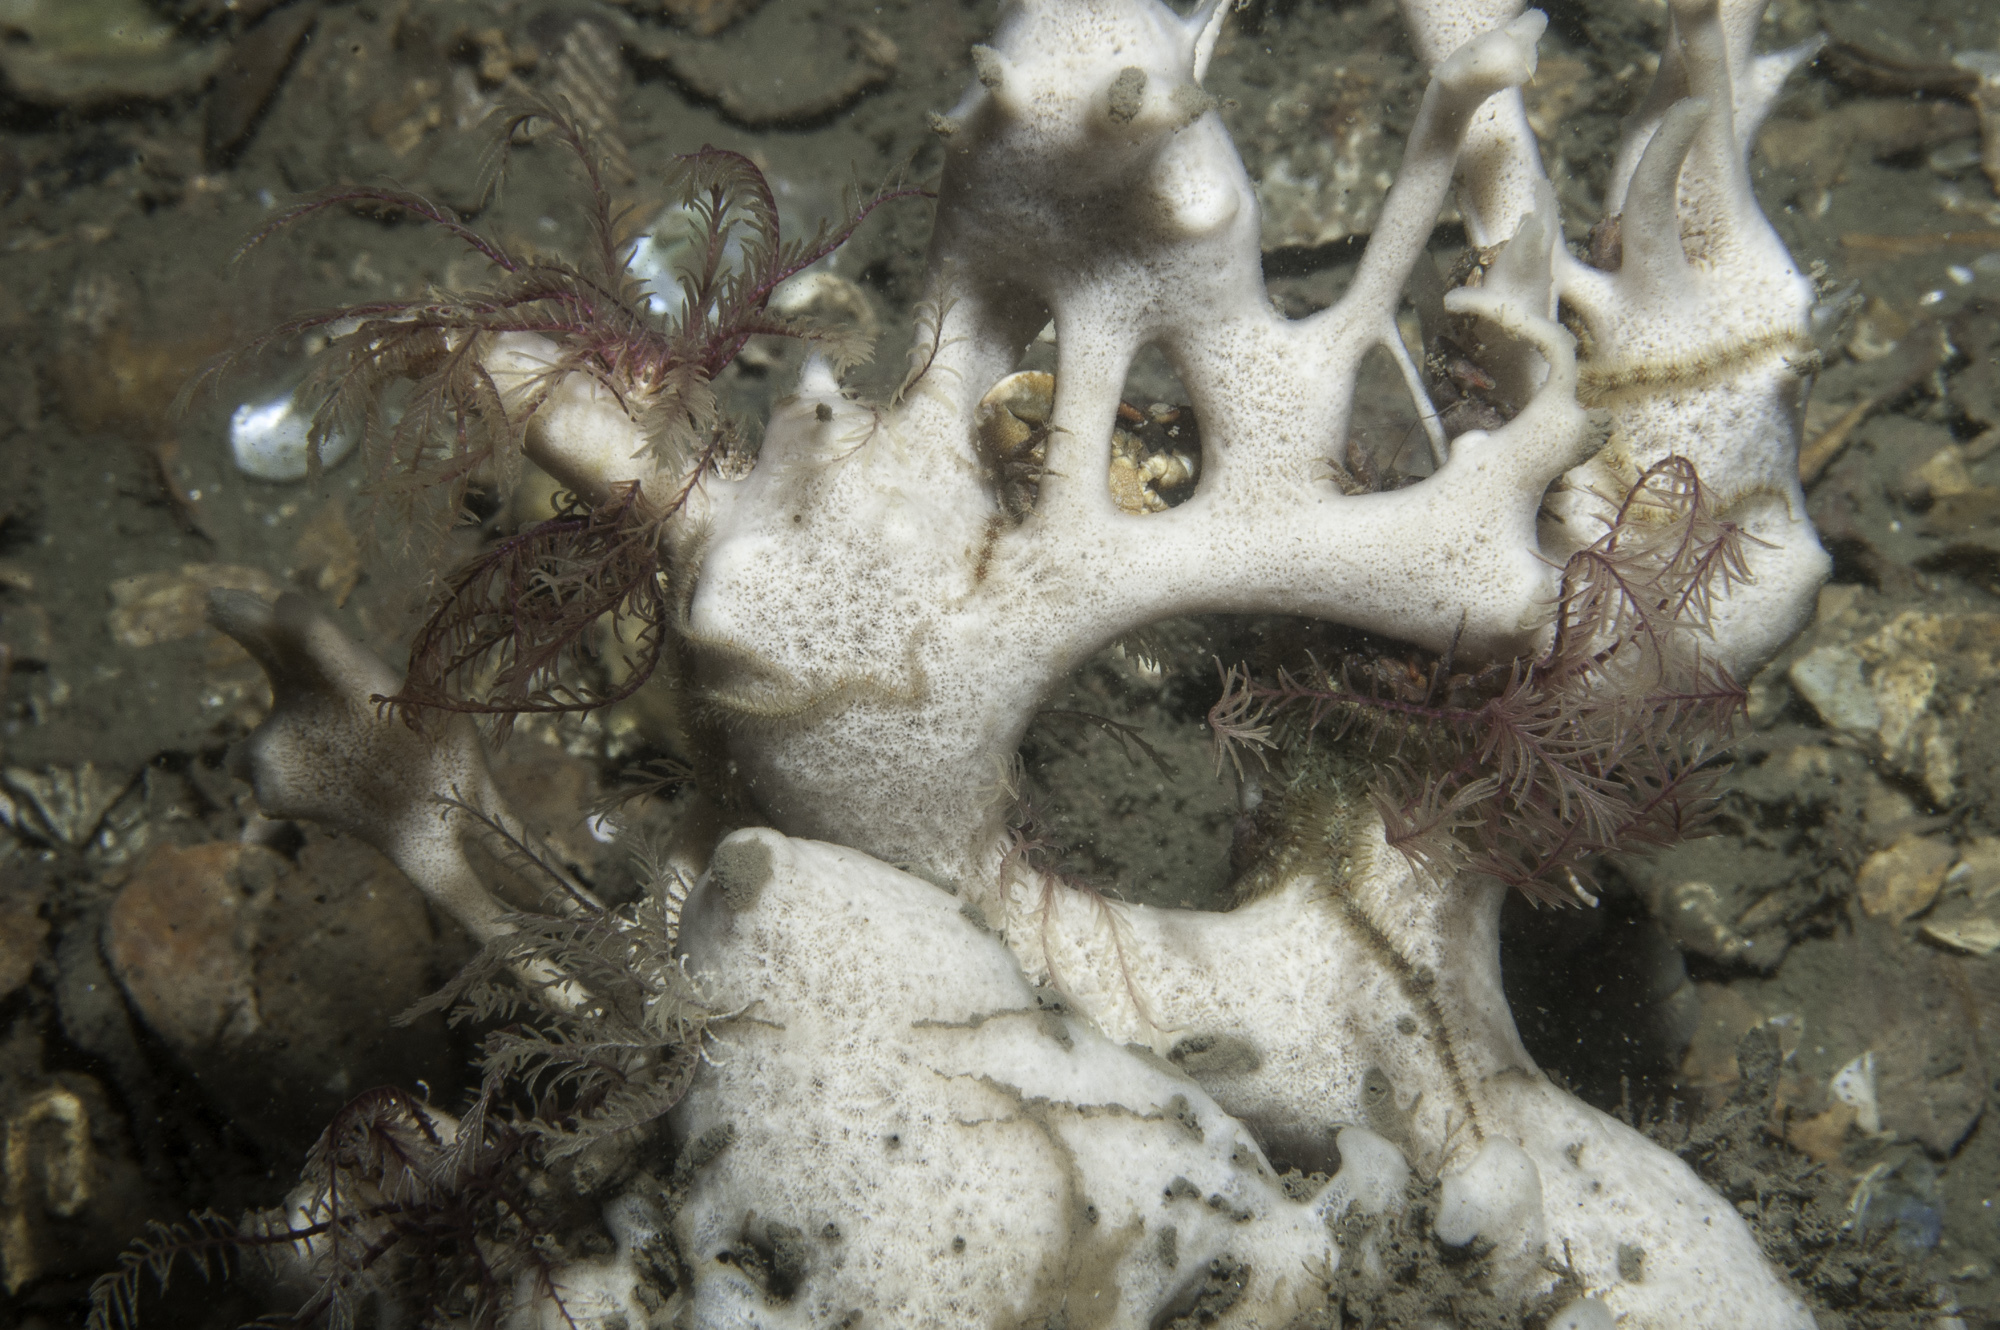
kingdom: Animalia
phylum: Porifera
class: Demospongiae
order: Haplosclerida
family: Chalinidae
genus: Haliclona
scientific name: Haliclona fistulosa
